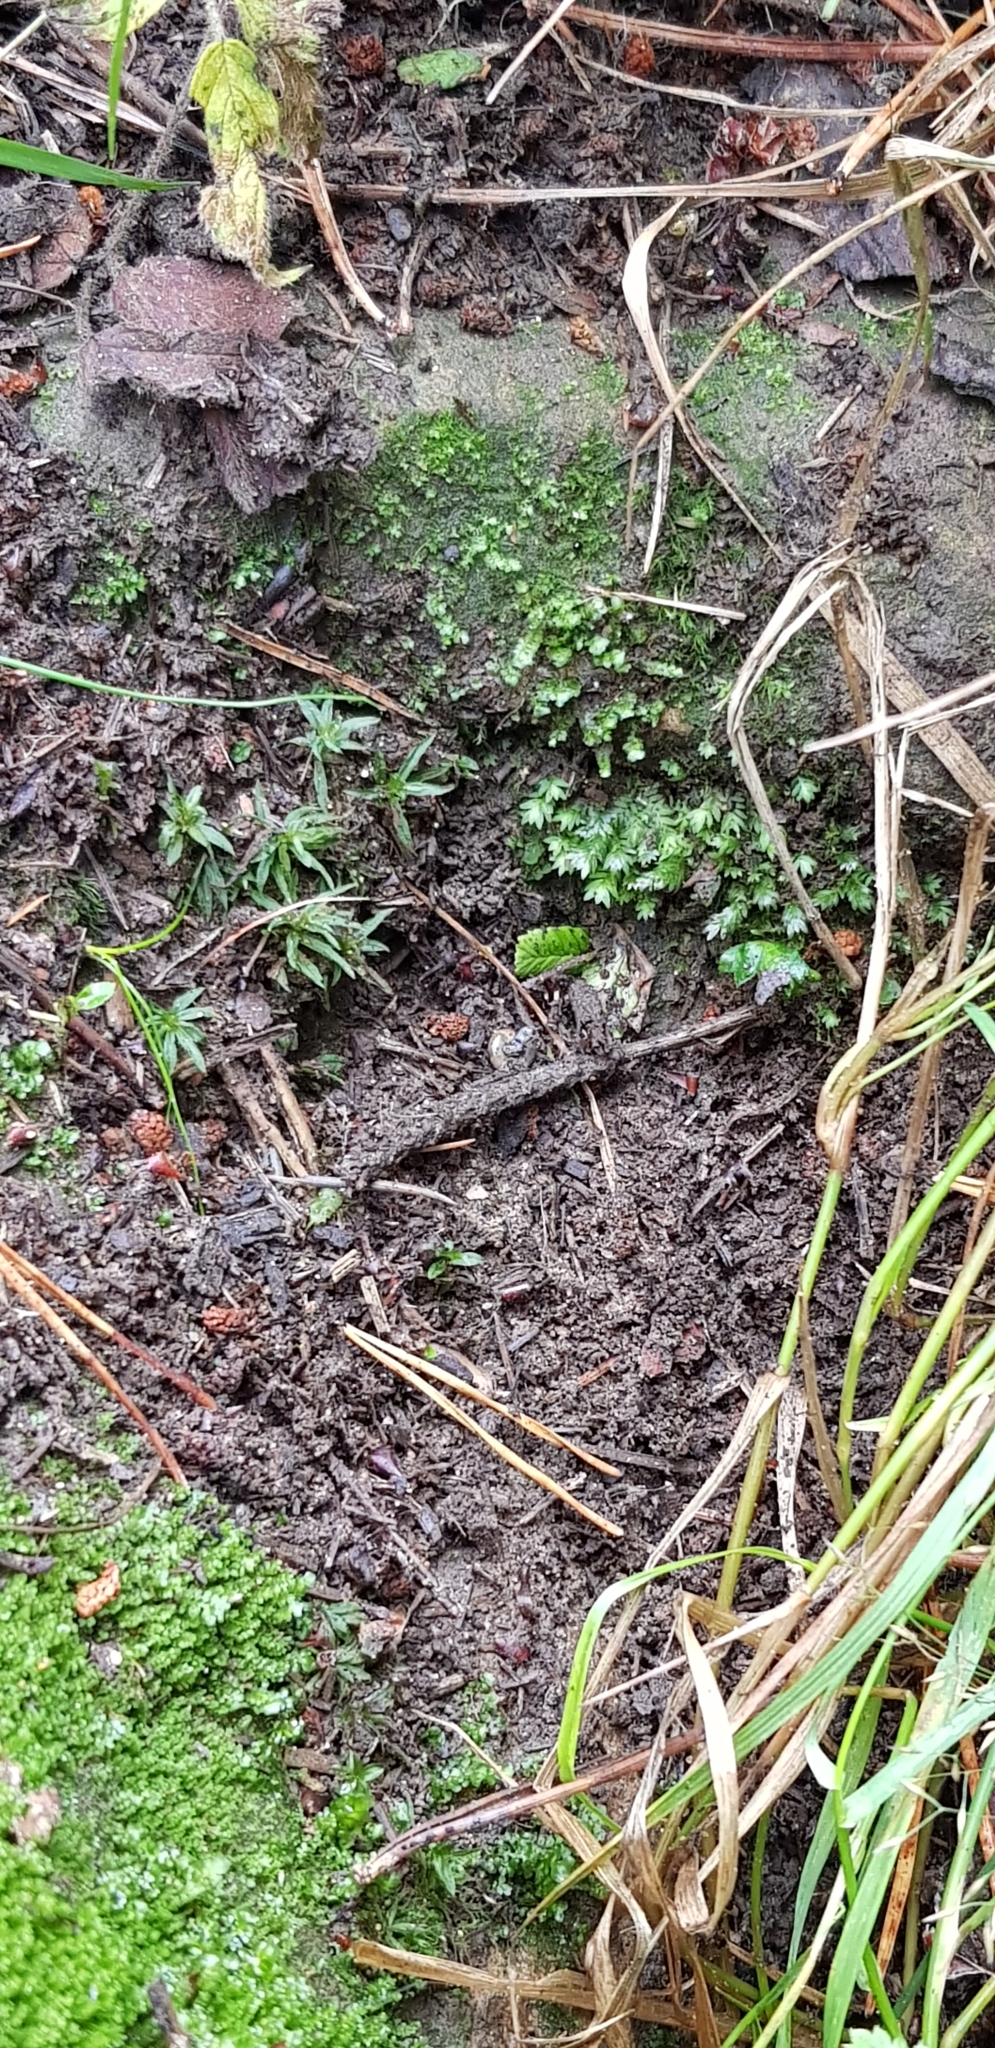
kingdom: Plantae
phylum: Bryophyta
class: Bryopsida
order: Dicranales
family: Fissidentaceae
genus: Fissidens
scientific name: Fissidens bryoides
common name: Lesser pocket moss
